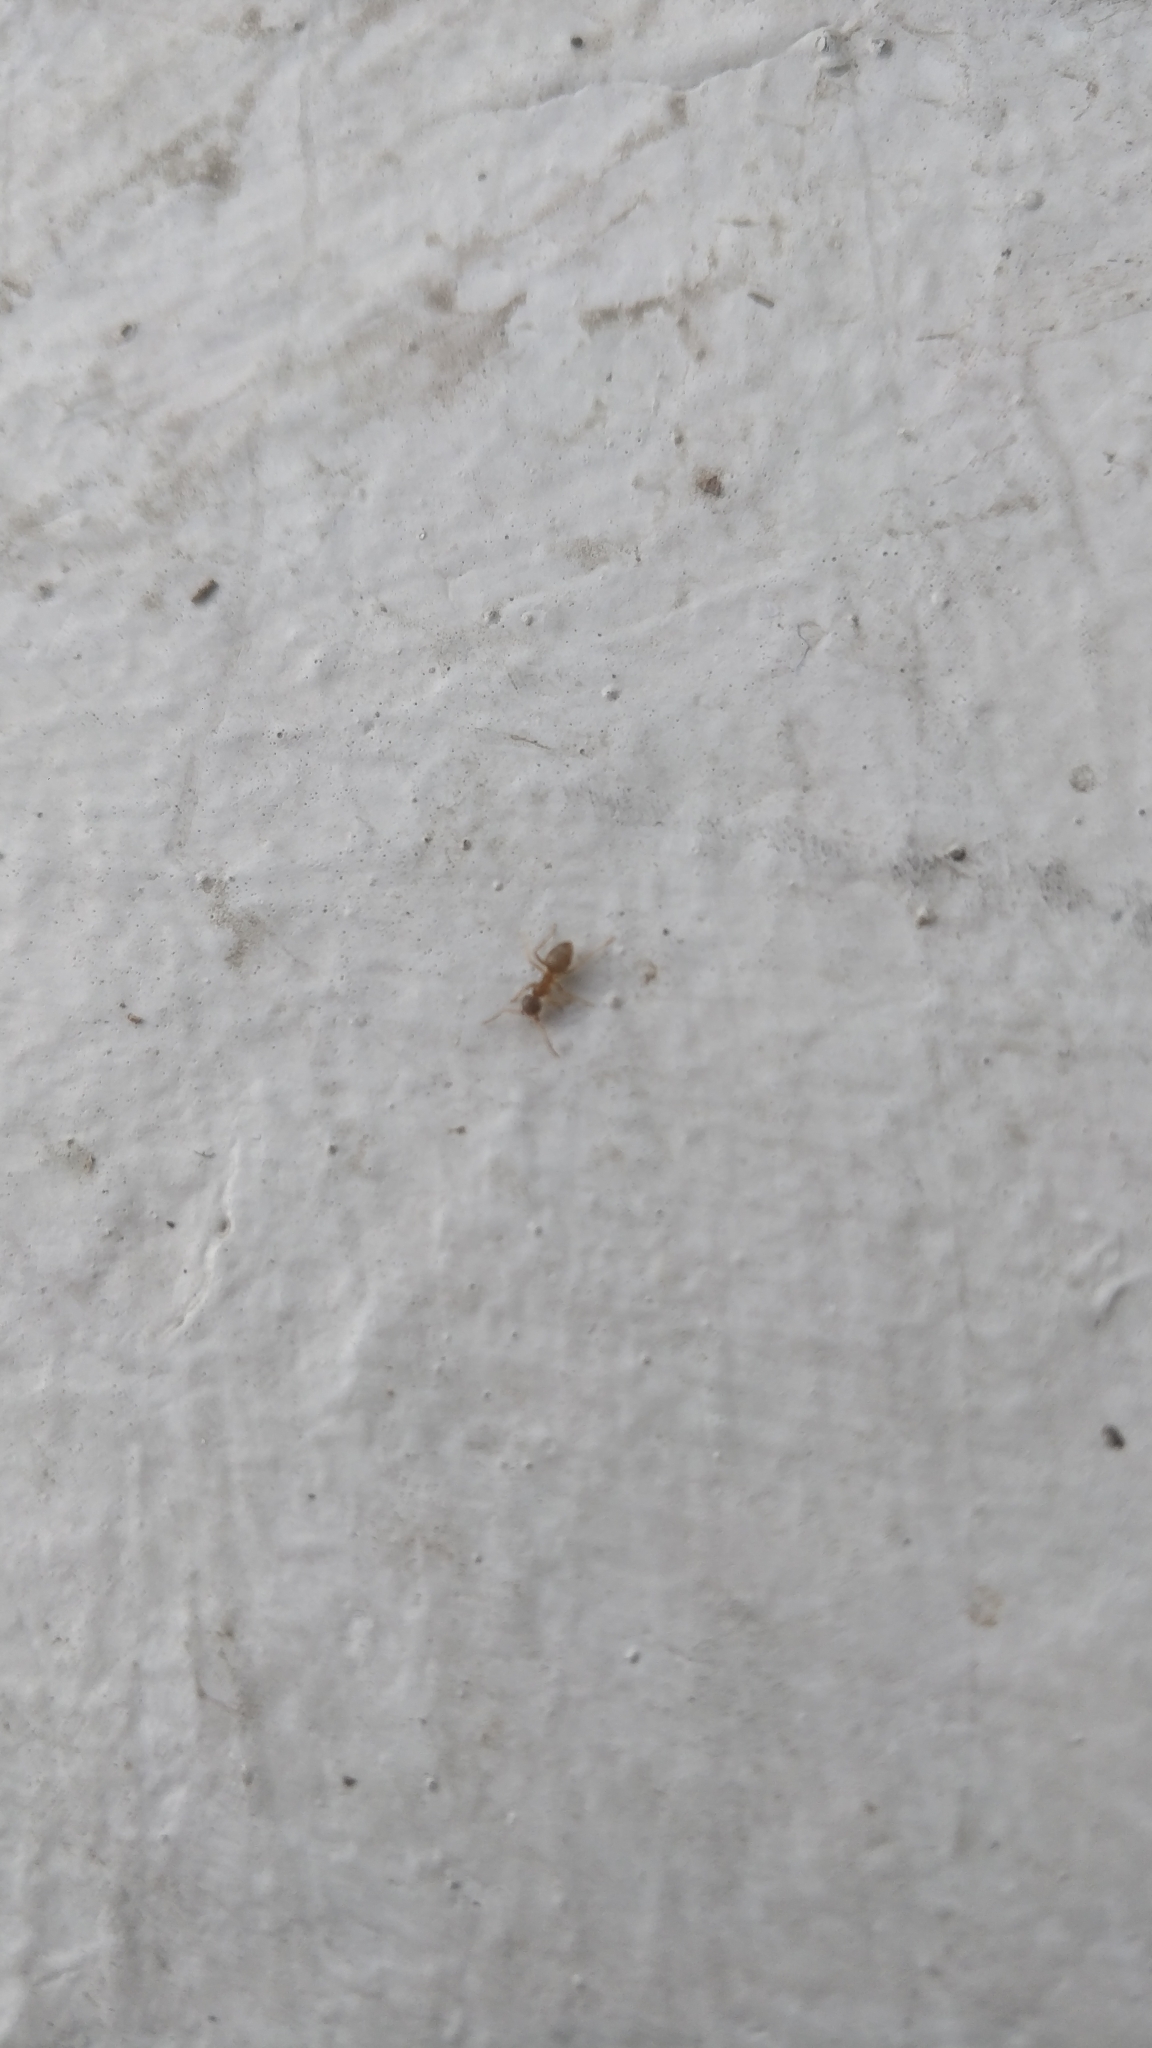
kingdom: Animalia
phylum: Arthropoda
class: Insecta
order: Hymenoptera
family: Formicidae
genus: Lasius
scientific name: Lasius neoniger
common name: Turfgrass ant
